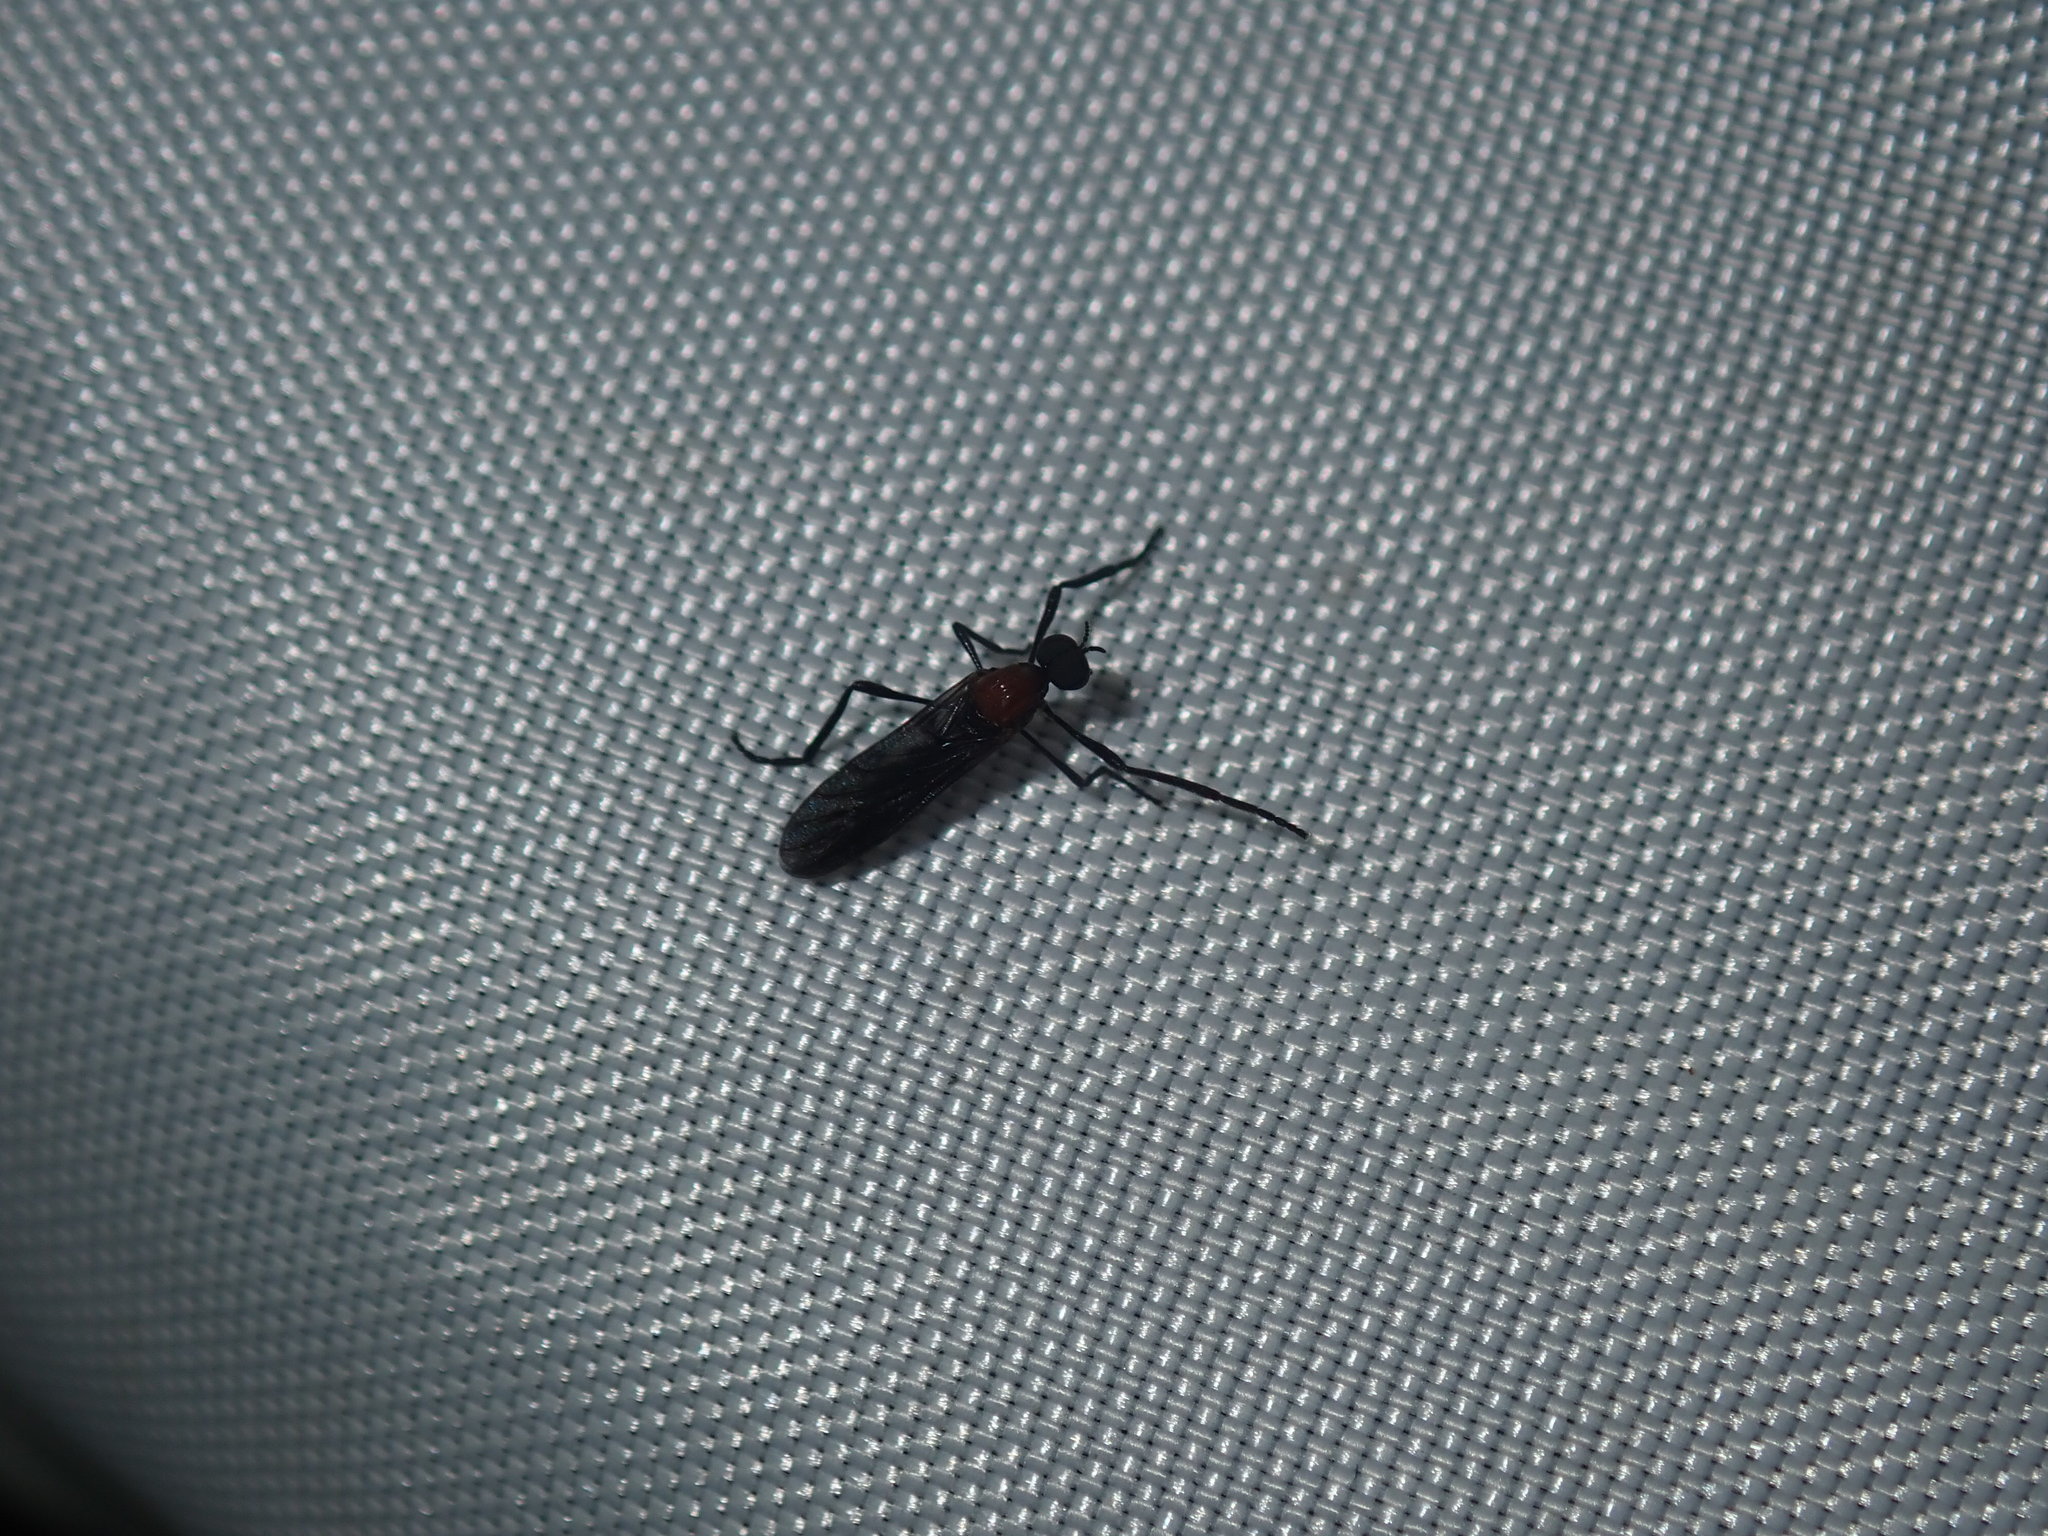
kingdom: Animalia
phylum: Arthropoda
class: Insecta
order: Diptera
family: Bibionidae
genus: Plecia
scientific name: Plecia dimidiata
